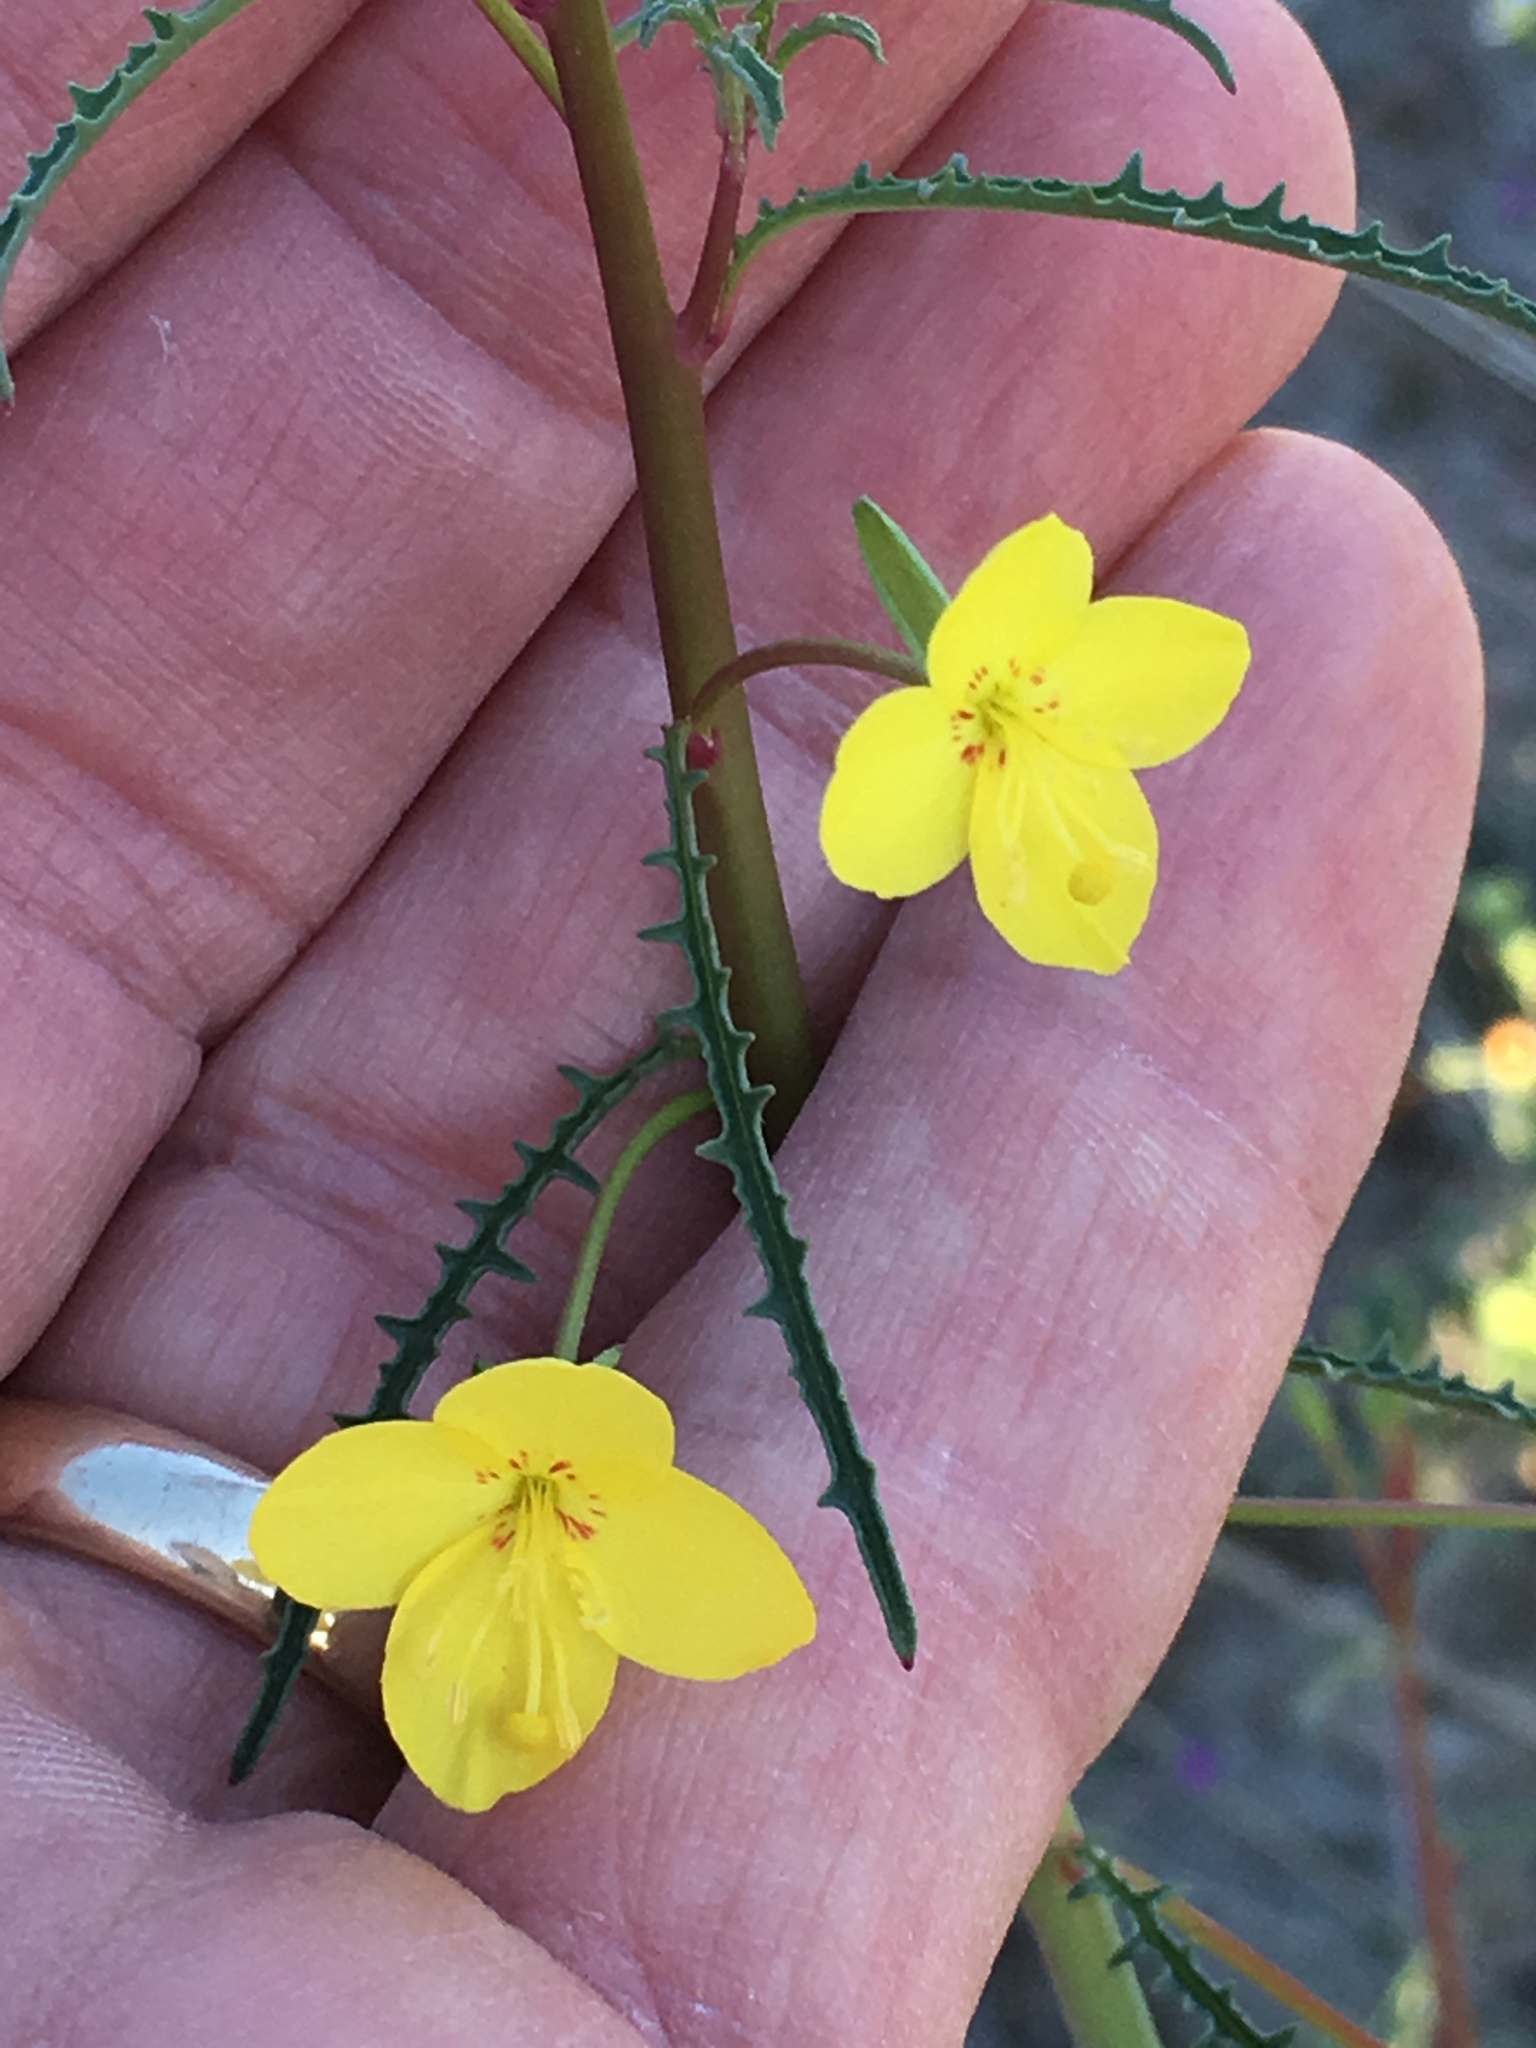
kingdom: Plantae
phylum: Tracheophyta
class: Magnoliopsida
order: Myrtales
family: Onagraceae
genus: Eulobus
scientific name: Eulobus californicus
